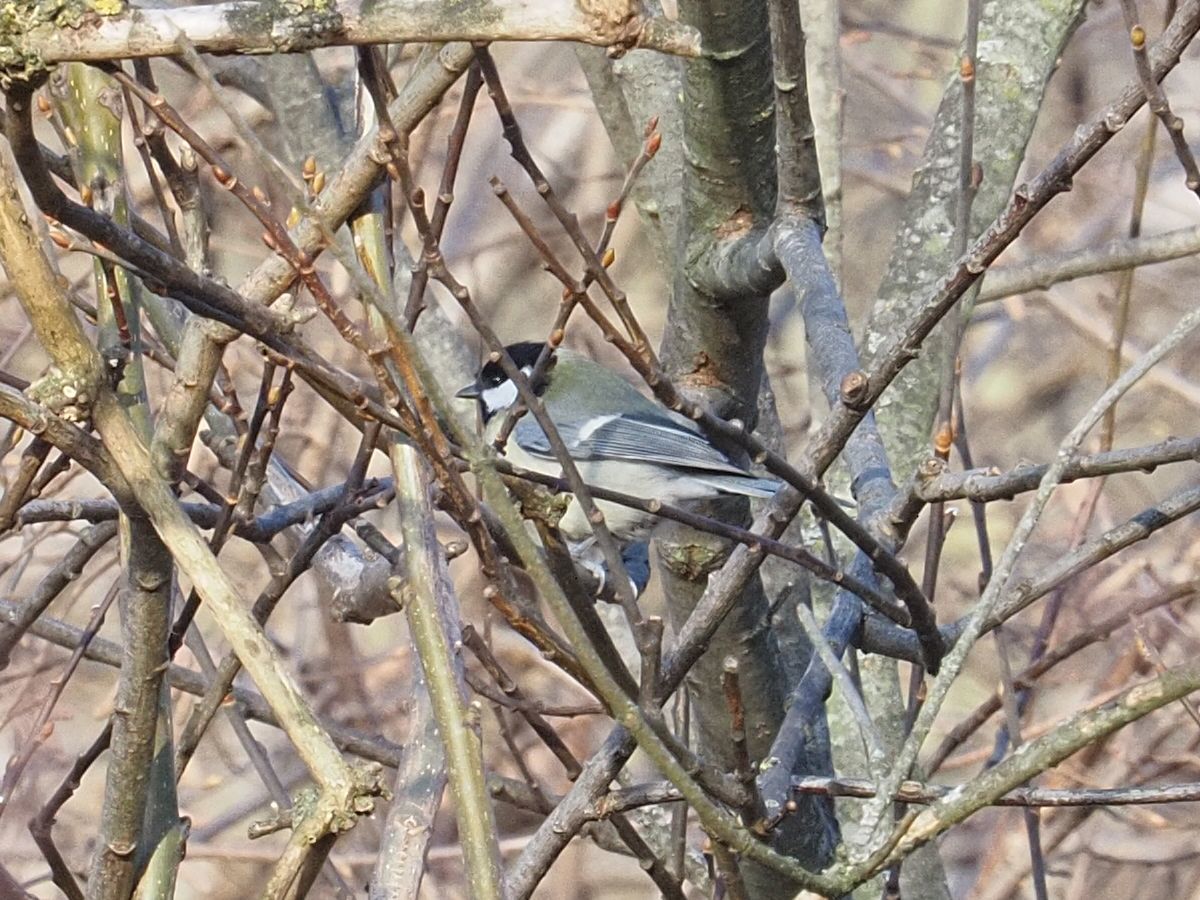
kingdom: Animalia
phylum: Chordata
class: Aves
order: Passeriformes
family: Paridae
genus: Parus
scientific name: Parus major
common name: Great tit
